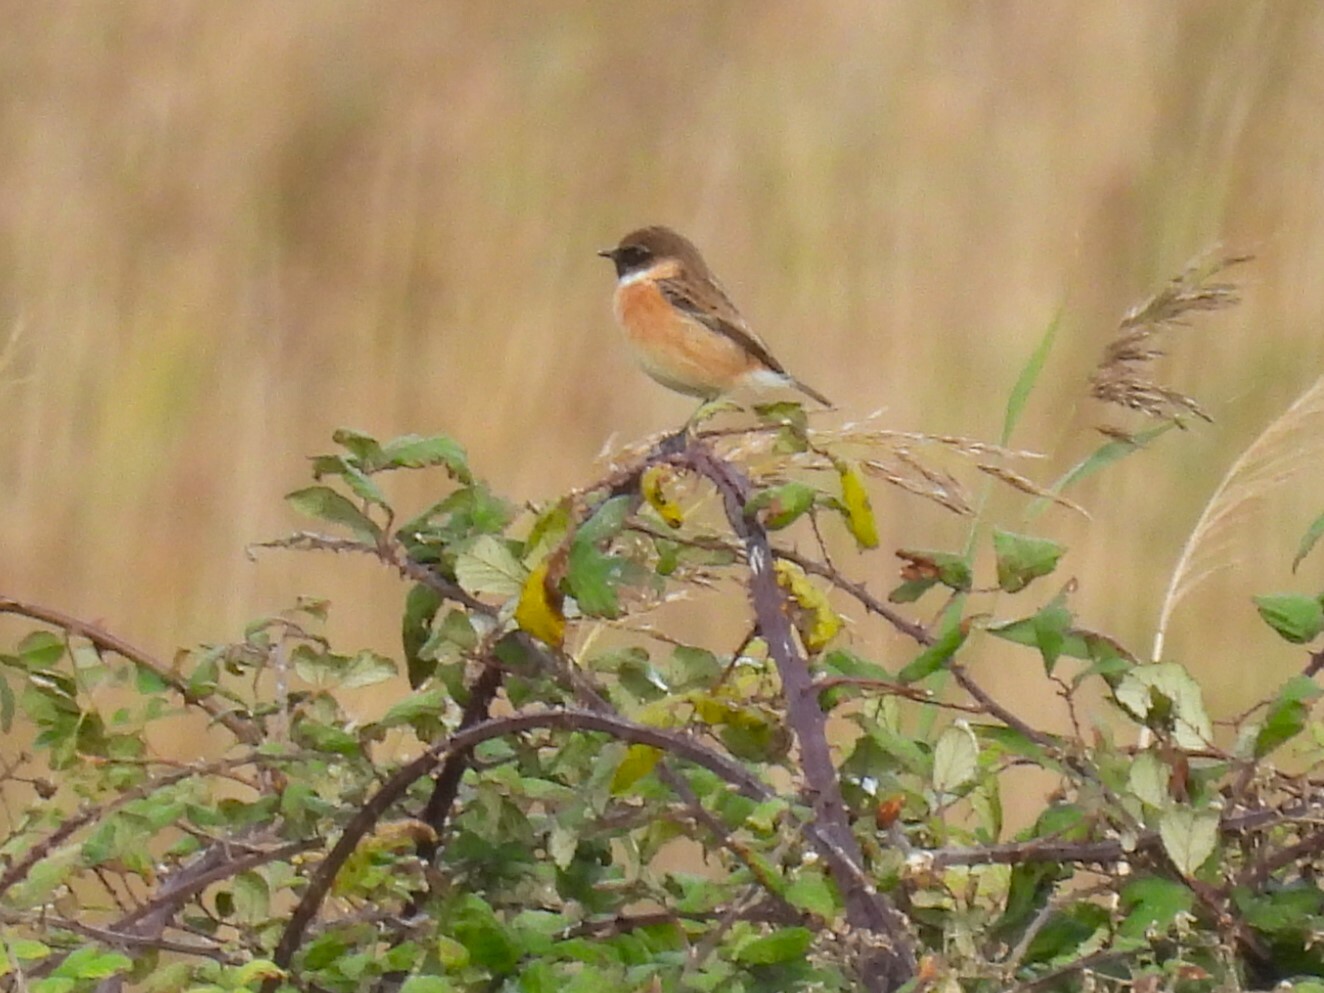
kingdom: Animalia
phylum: Chordata
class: Aves
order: Passeriformes
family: Muscicapidae
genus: Saxicola
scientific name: Saxicola rubicola
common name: European stonechat
